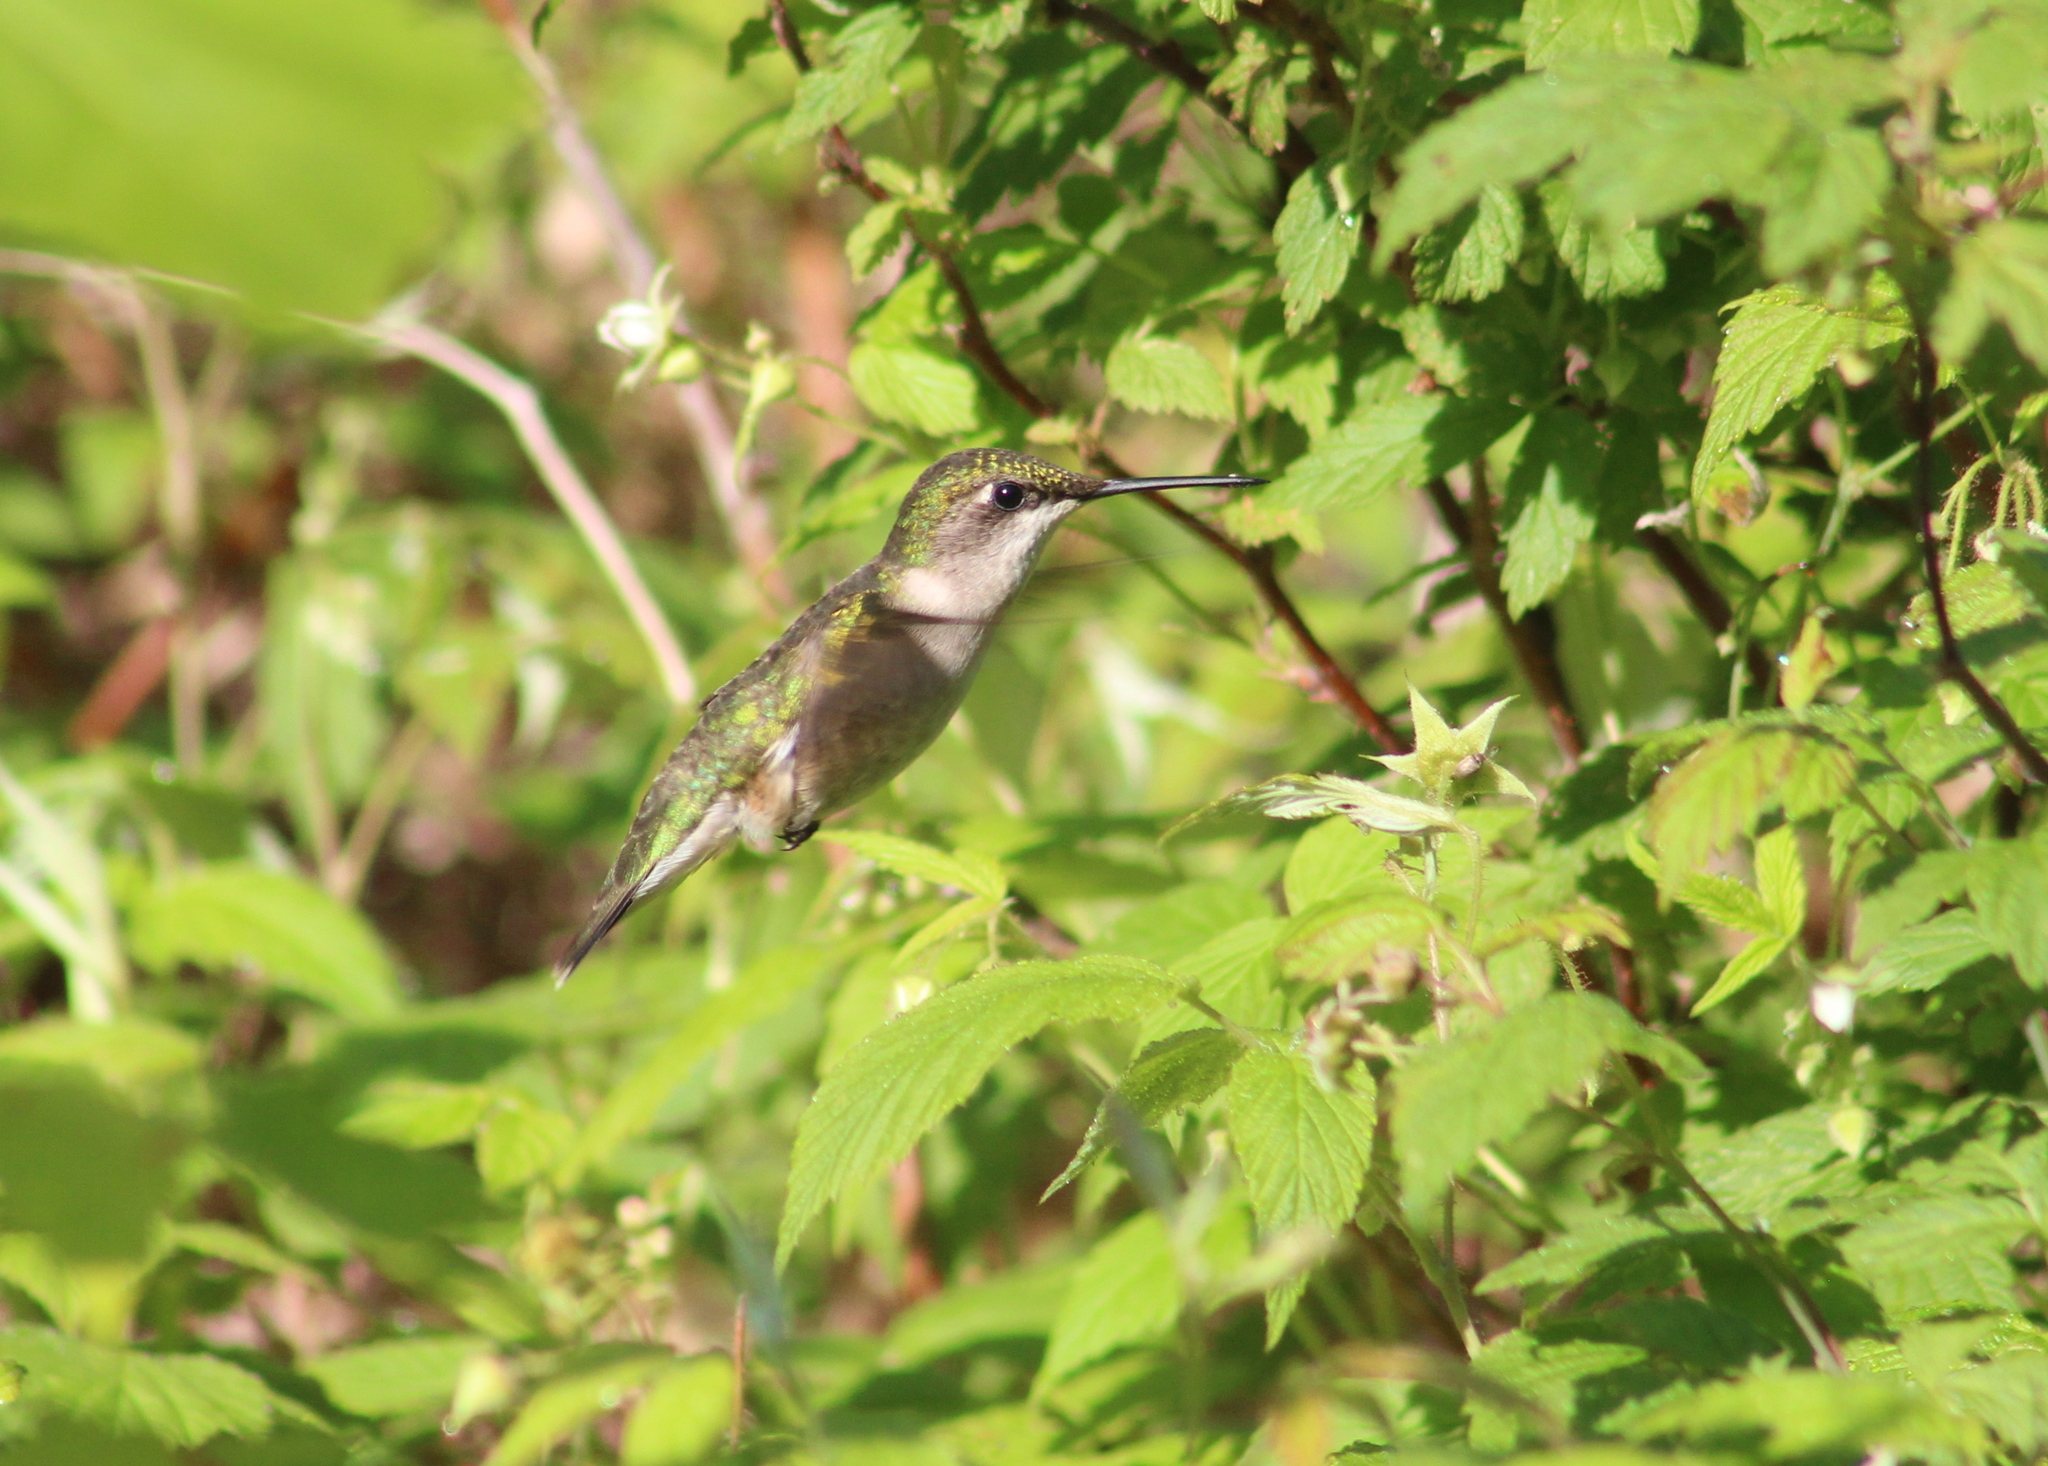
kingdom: Animalia
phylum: Chordata
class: Aves
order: Apodiformes
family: Trochilidae
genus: Archilochus
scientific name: Archilochus colubris
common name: Ruby-throated hummingbird
